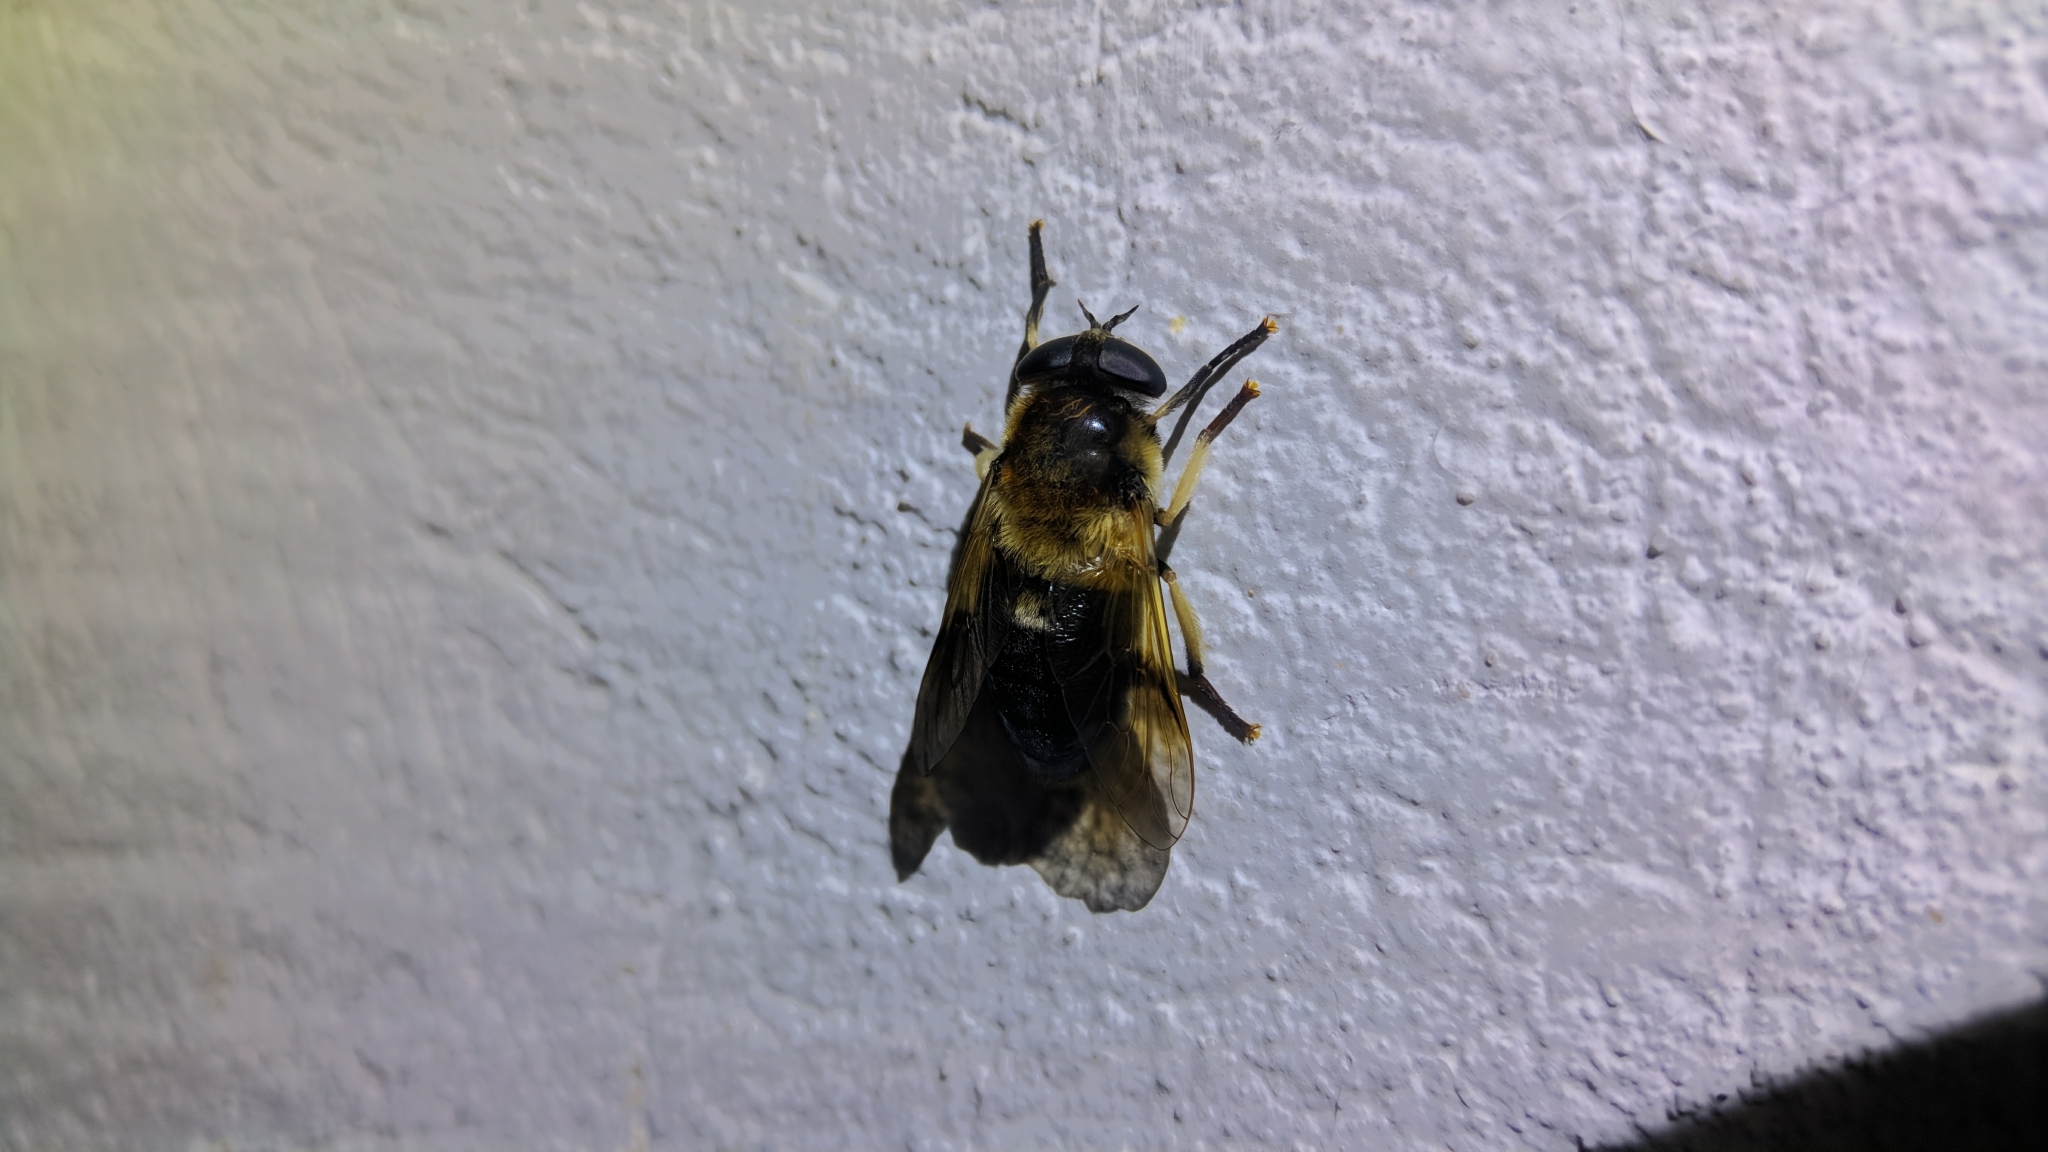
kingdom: Animalia
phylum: Arthropoda
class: Insecta
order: Diptera
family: Tabanidae
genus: Therioplectes
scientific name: Therioplectes gigas
